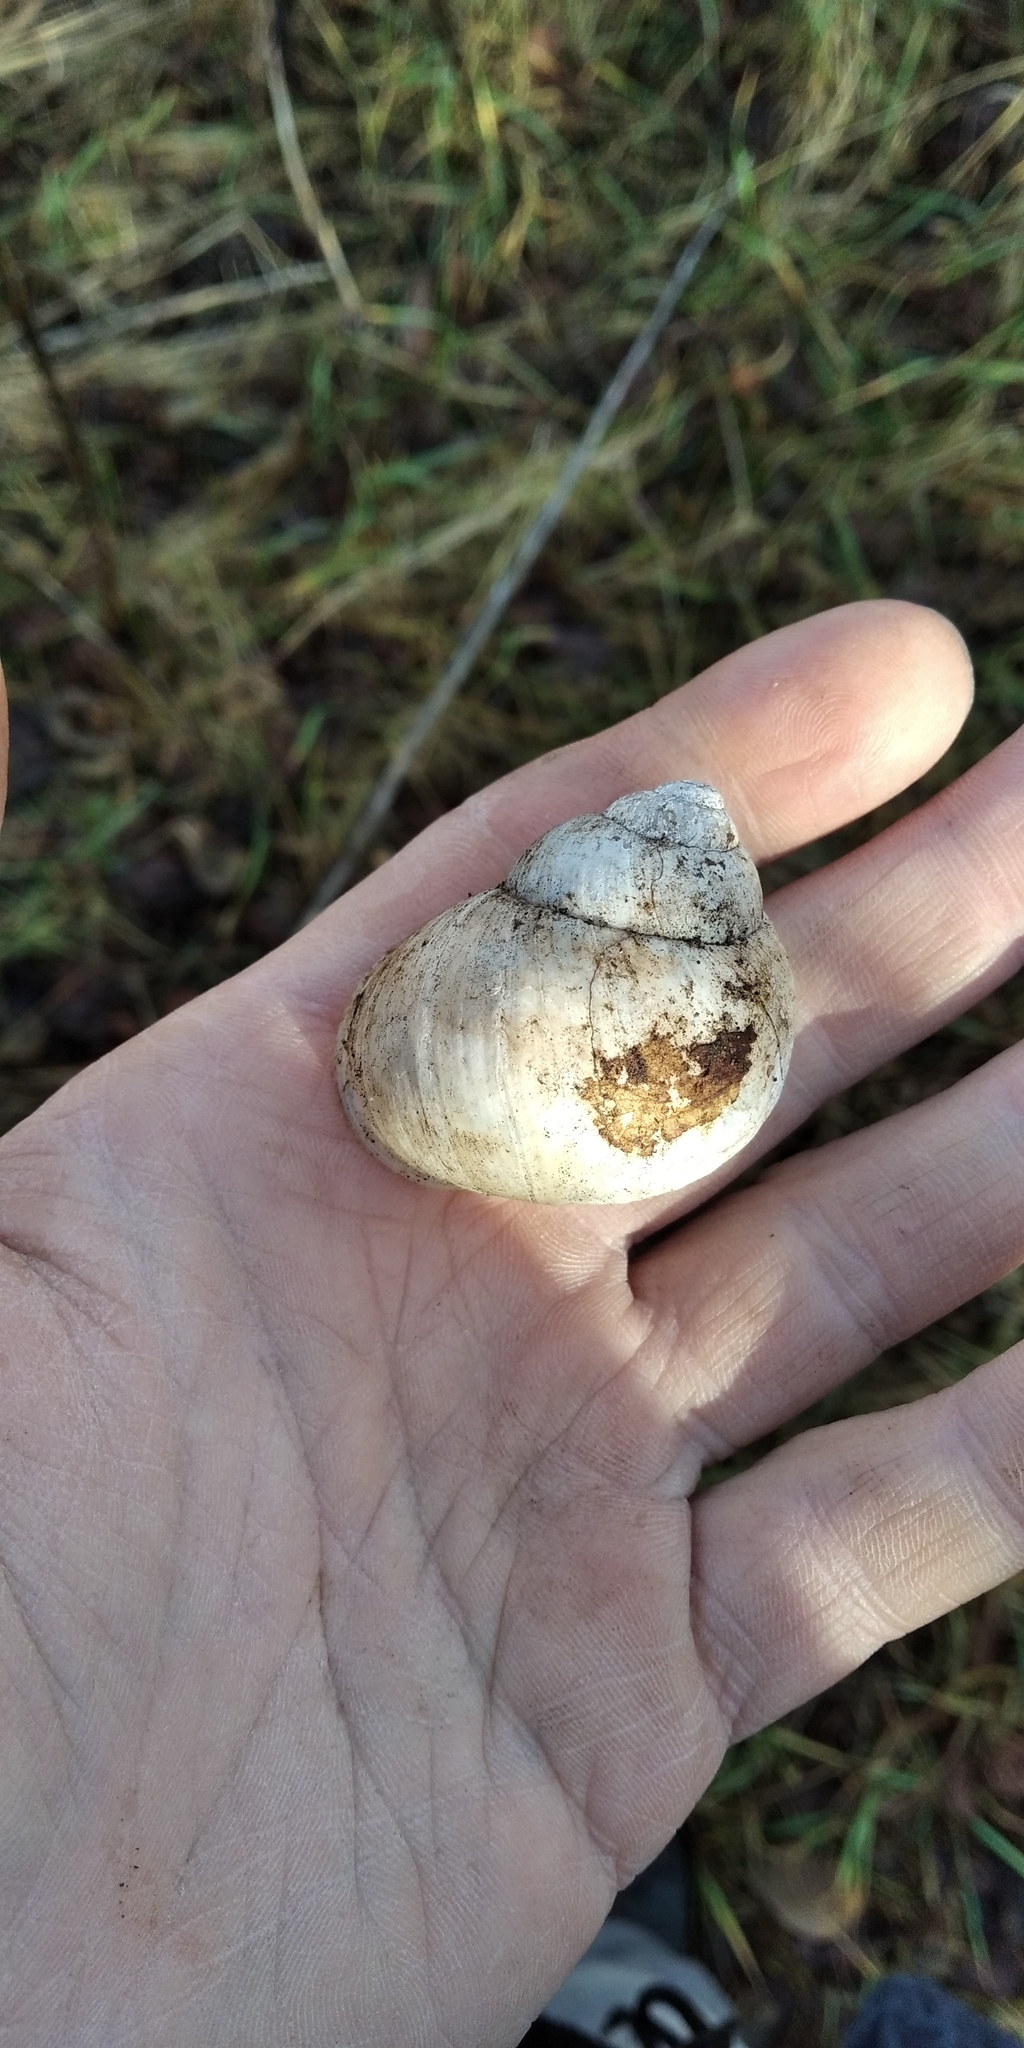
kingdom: Animalia
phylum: Mollusca
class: Gastropoda
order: Stylommatophora
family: Helicidae
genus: Helix
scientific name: Helix pomatia
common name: Roman snail
